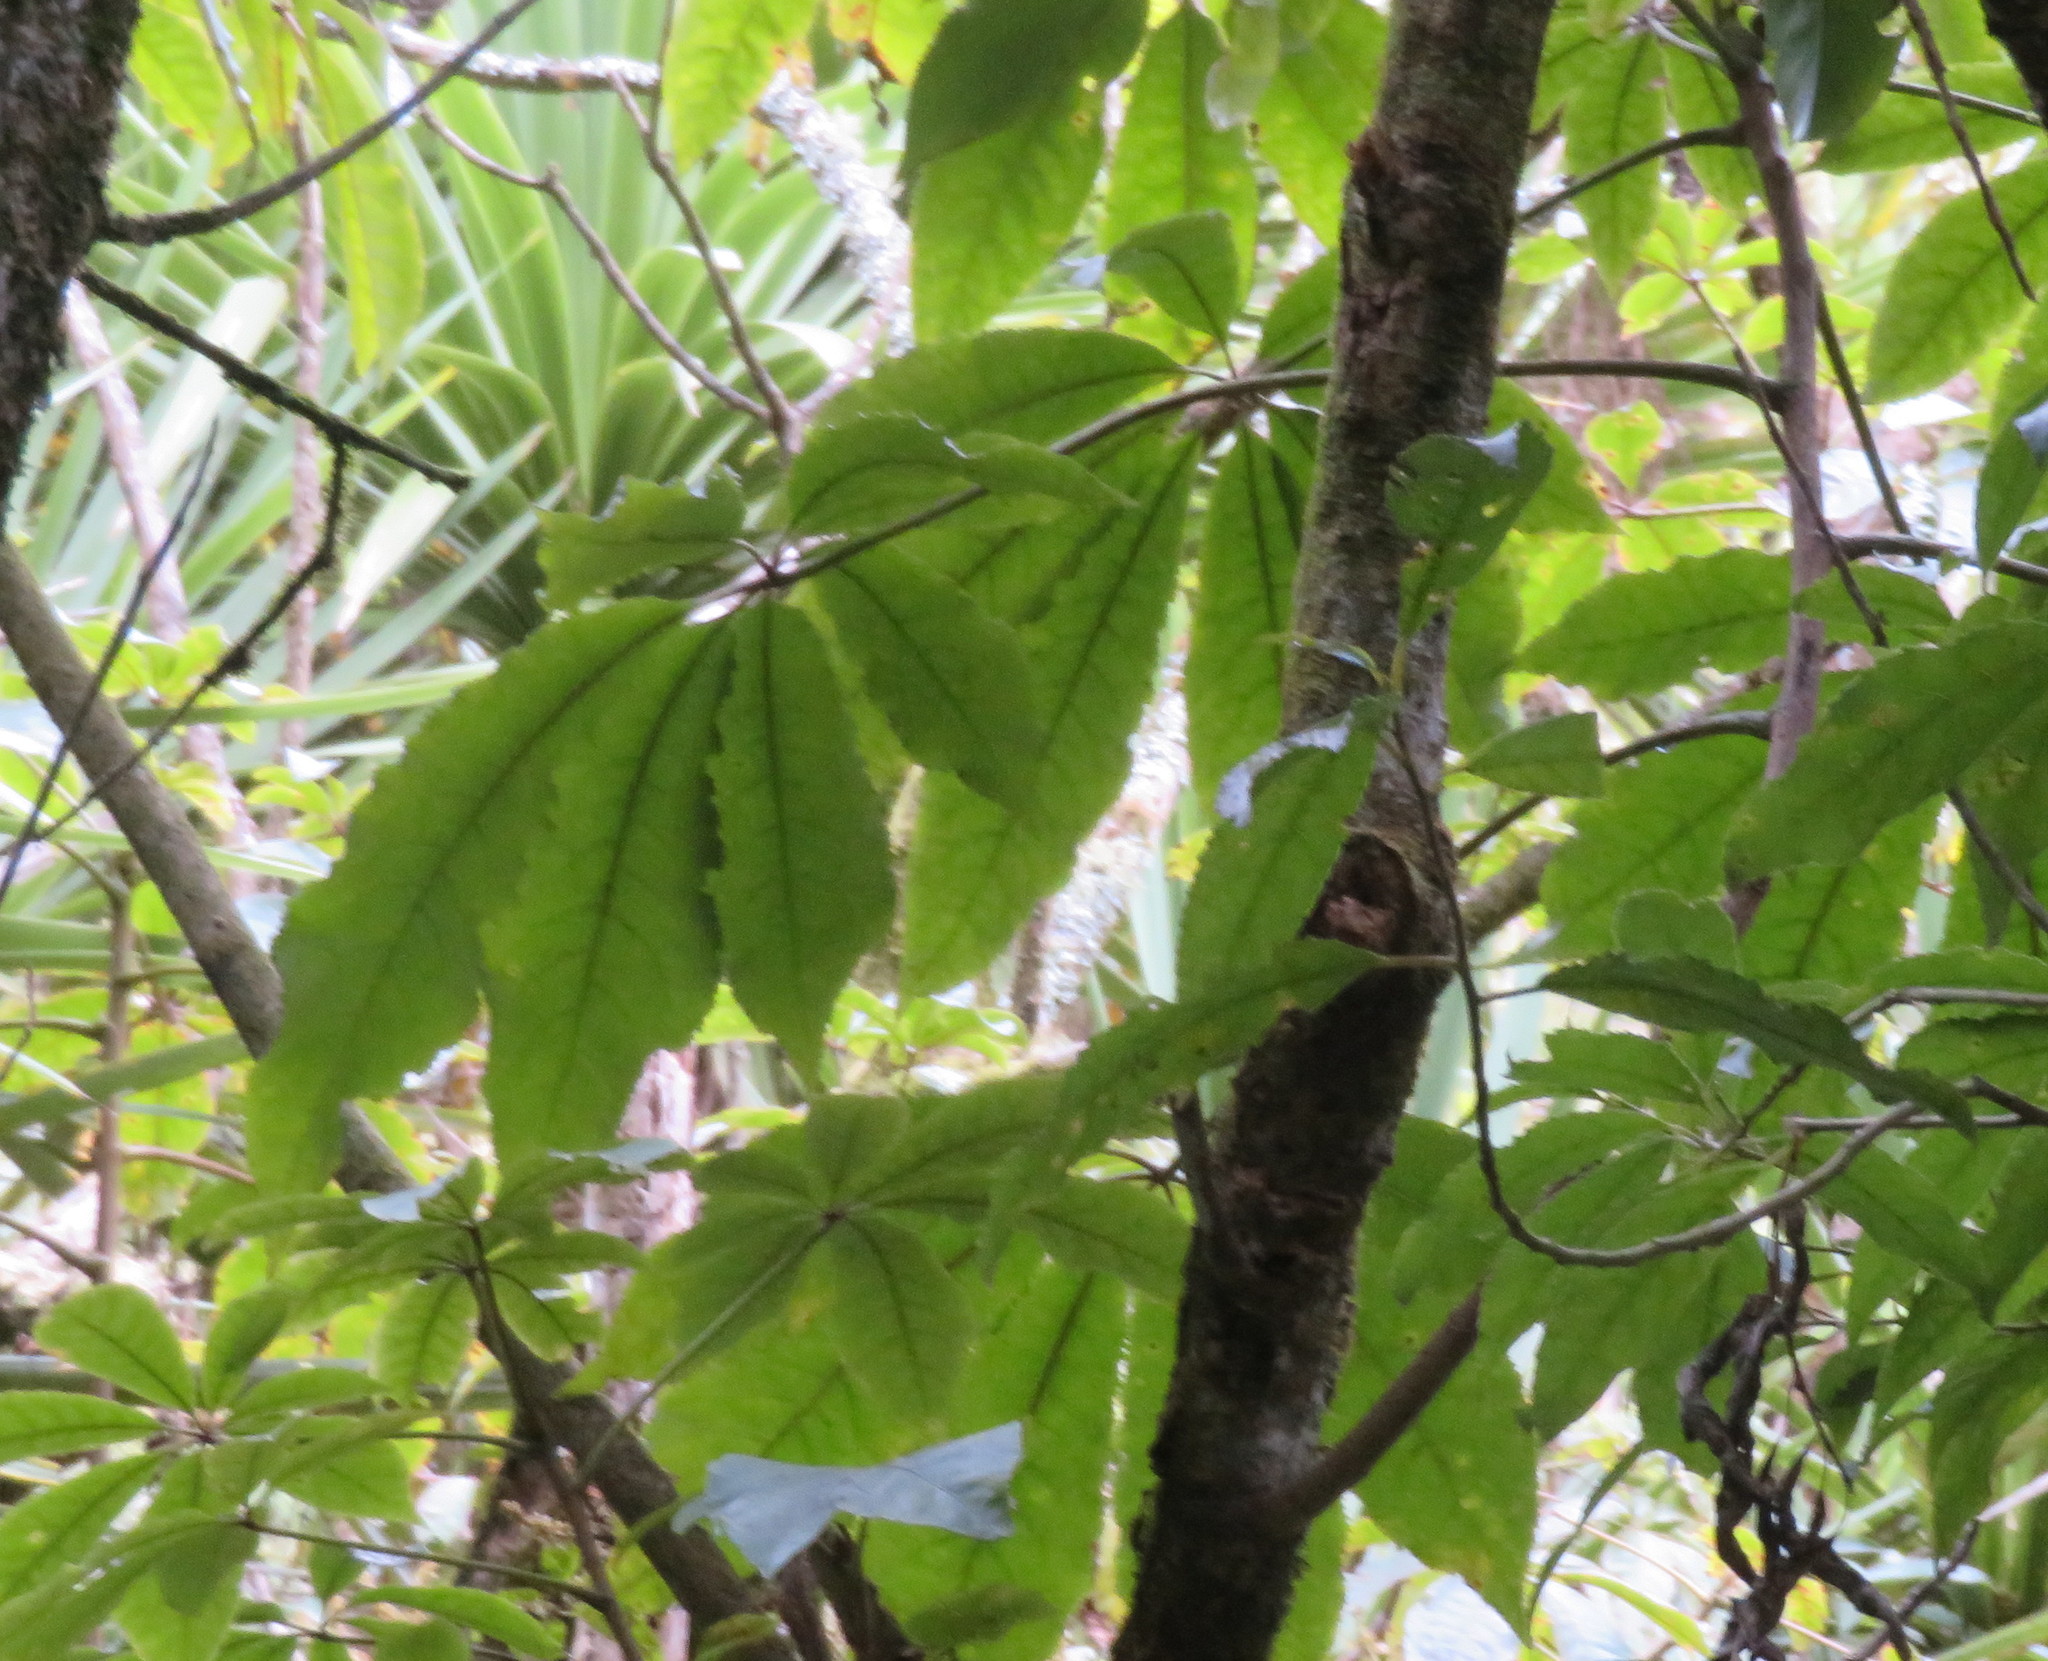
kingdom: Plantae
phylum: Tracheophyta
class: Magnoliopsida
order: Apiales
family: Araliaceae
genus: Schefflera
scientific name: Schefflera digitata
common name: Pate
